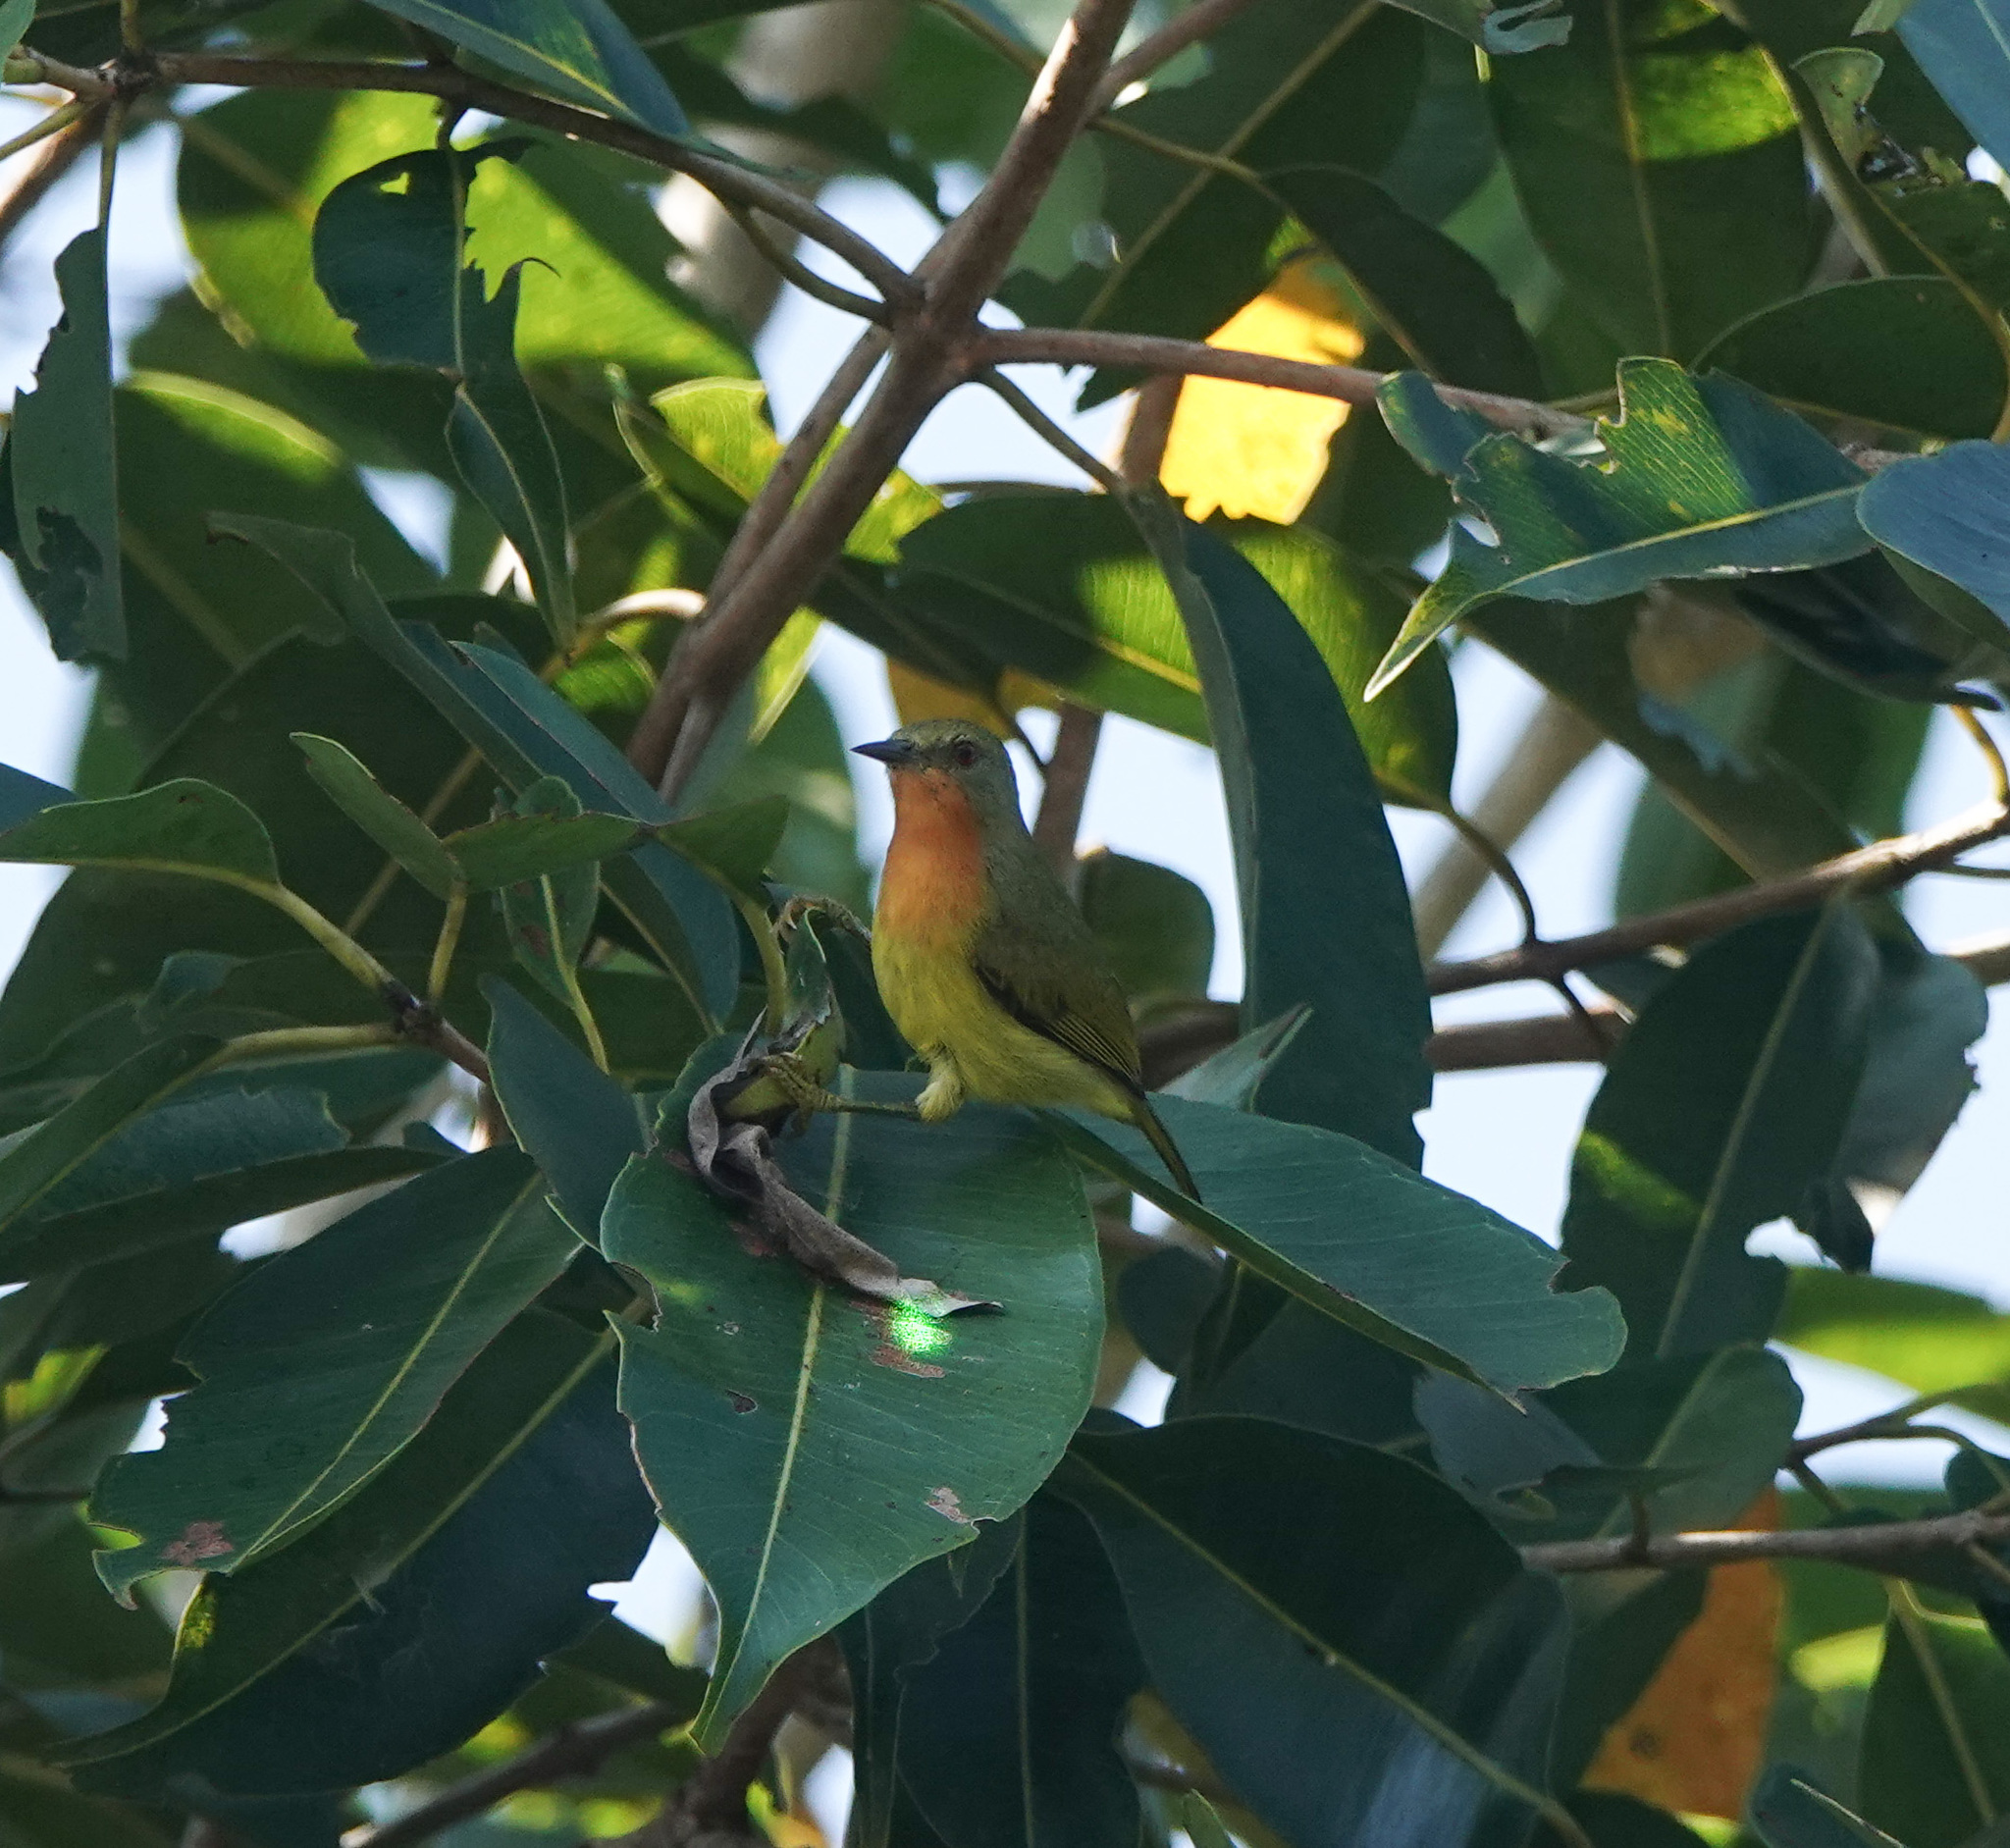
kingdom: Animalia
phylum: Chordata
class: Aves
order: Passeriformes
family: Nectariniidae
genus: Chalcoparia
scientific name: Chalcoparia singalensis
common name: Ruby-cheeked sunbird
